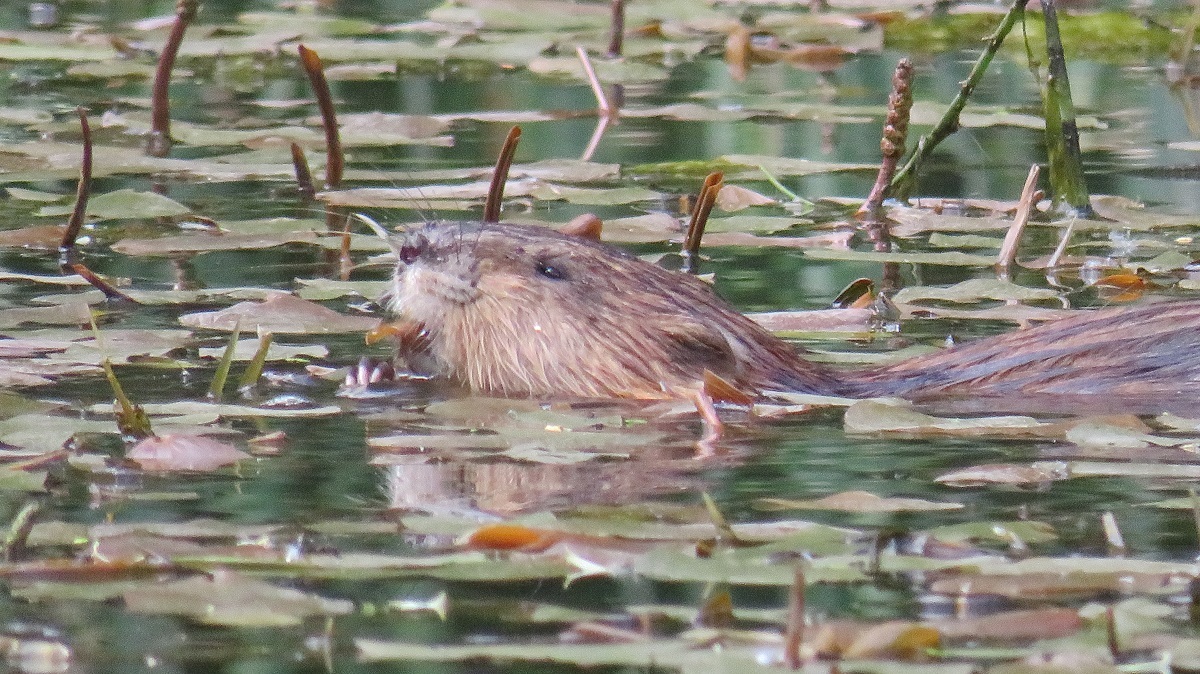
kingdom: Animalia
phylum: Chordata
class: Mammalia
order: Rodentia
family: Cricetidae
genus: Ondatra
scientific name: Ondatra zibethicus
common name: Muskrat
